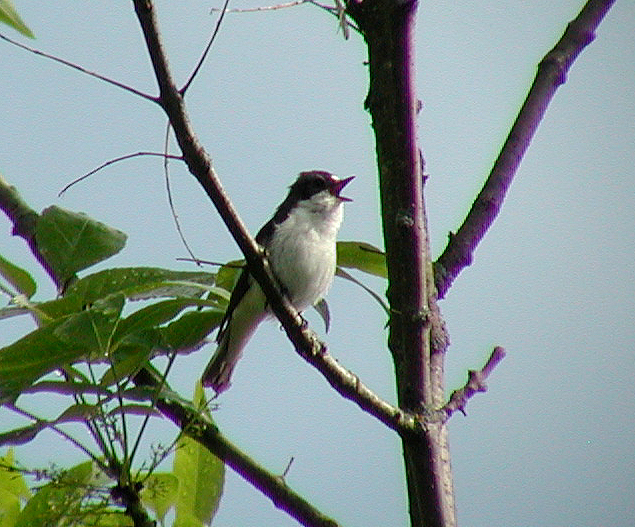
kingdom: Animalia
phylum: Chordata
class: Aves
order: Passeriformes
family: Muscicapidae
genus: Ficedula
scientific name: Ficedula hypoleuca
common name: European pied flycatcher
